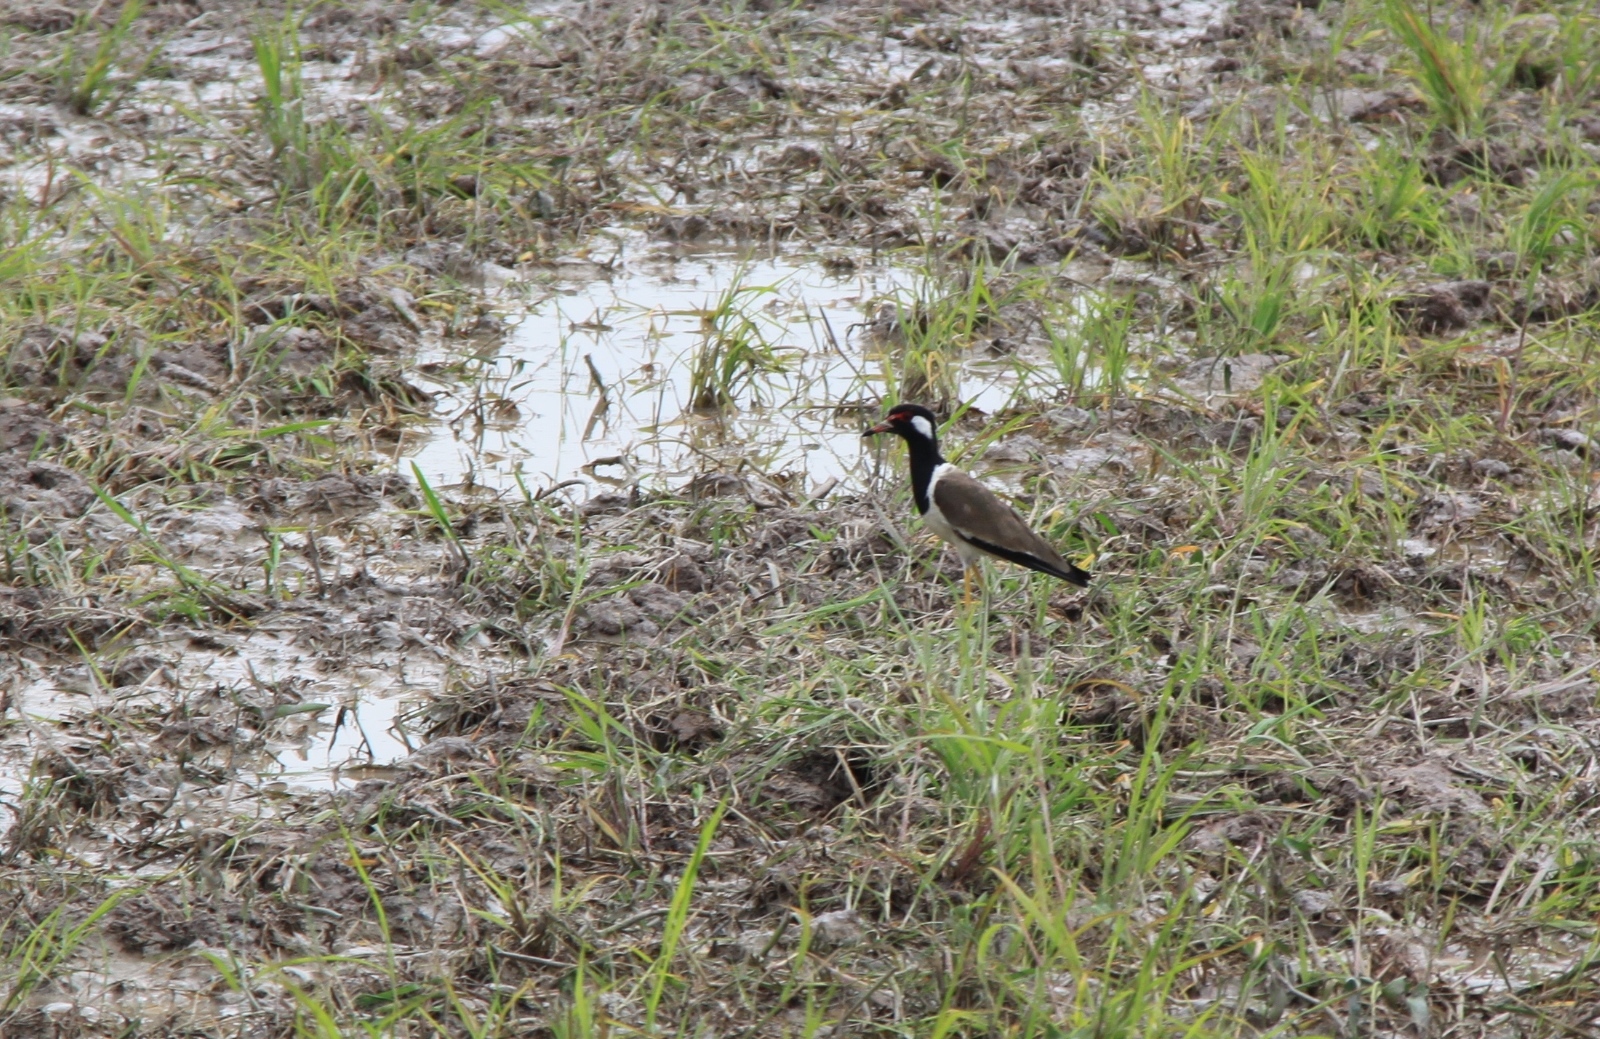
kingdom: Animalia
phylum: Chordata
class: Aves
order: Charadriiformes
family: Charadriidae
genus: Vanellus
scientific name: Vanellus indicus
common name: Red-wattled lapwing
